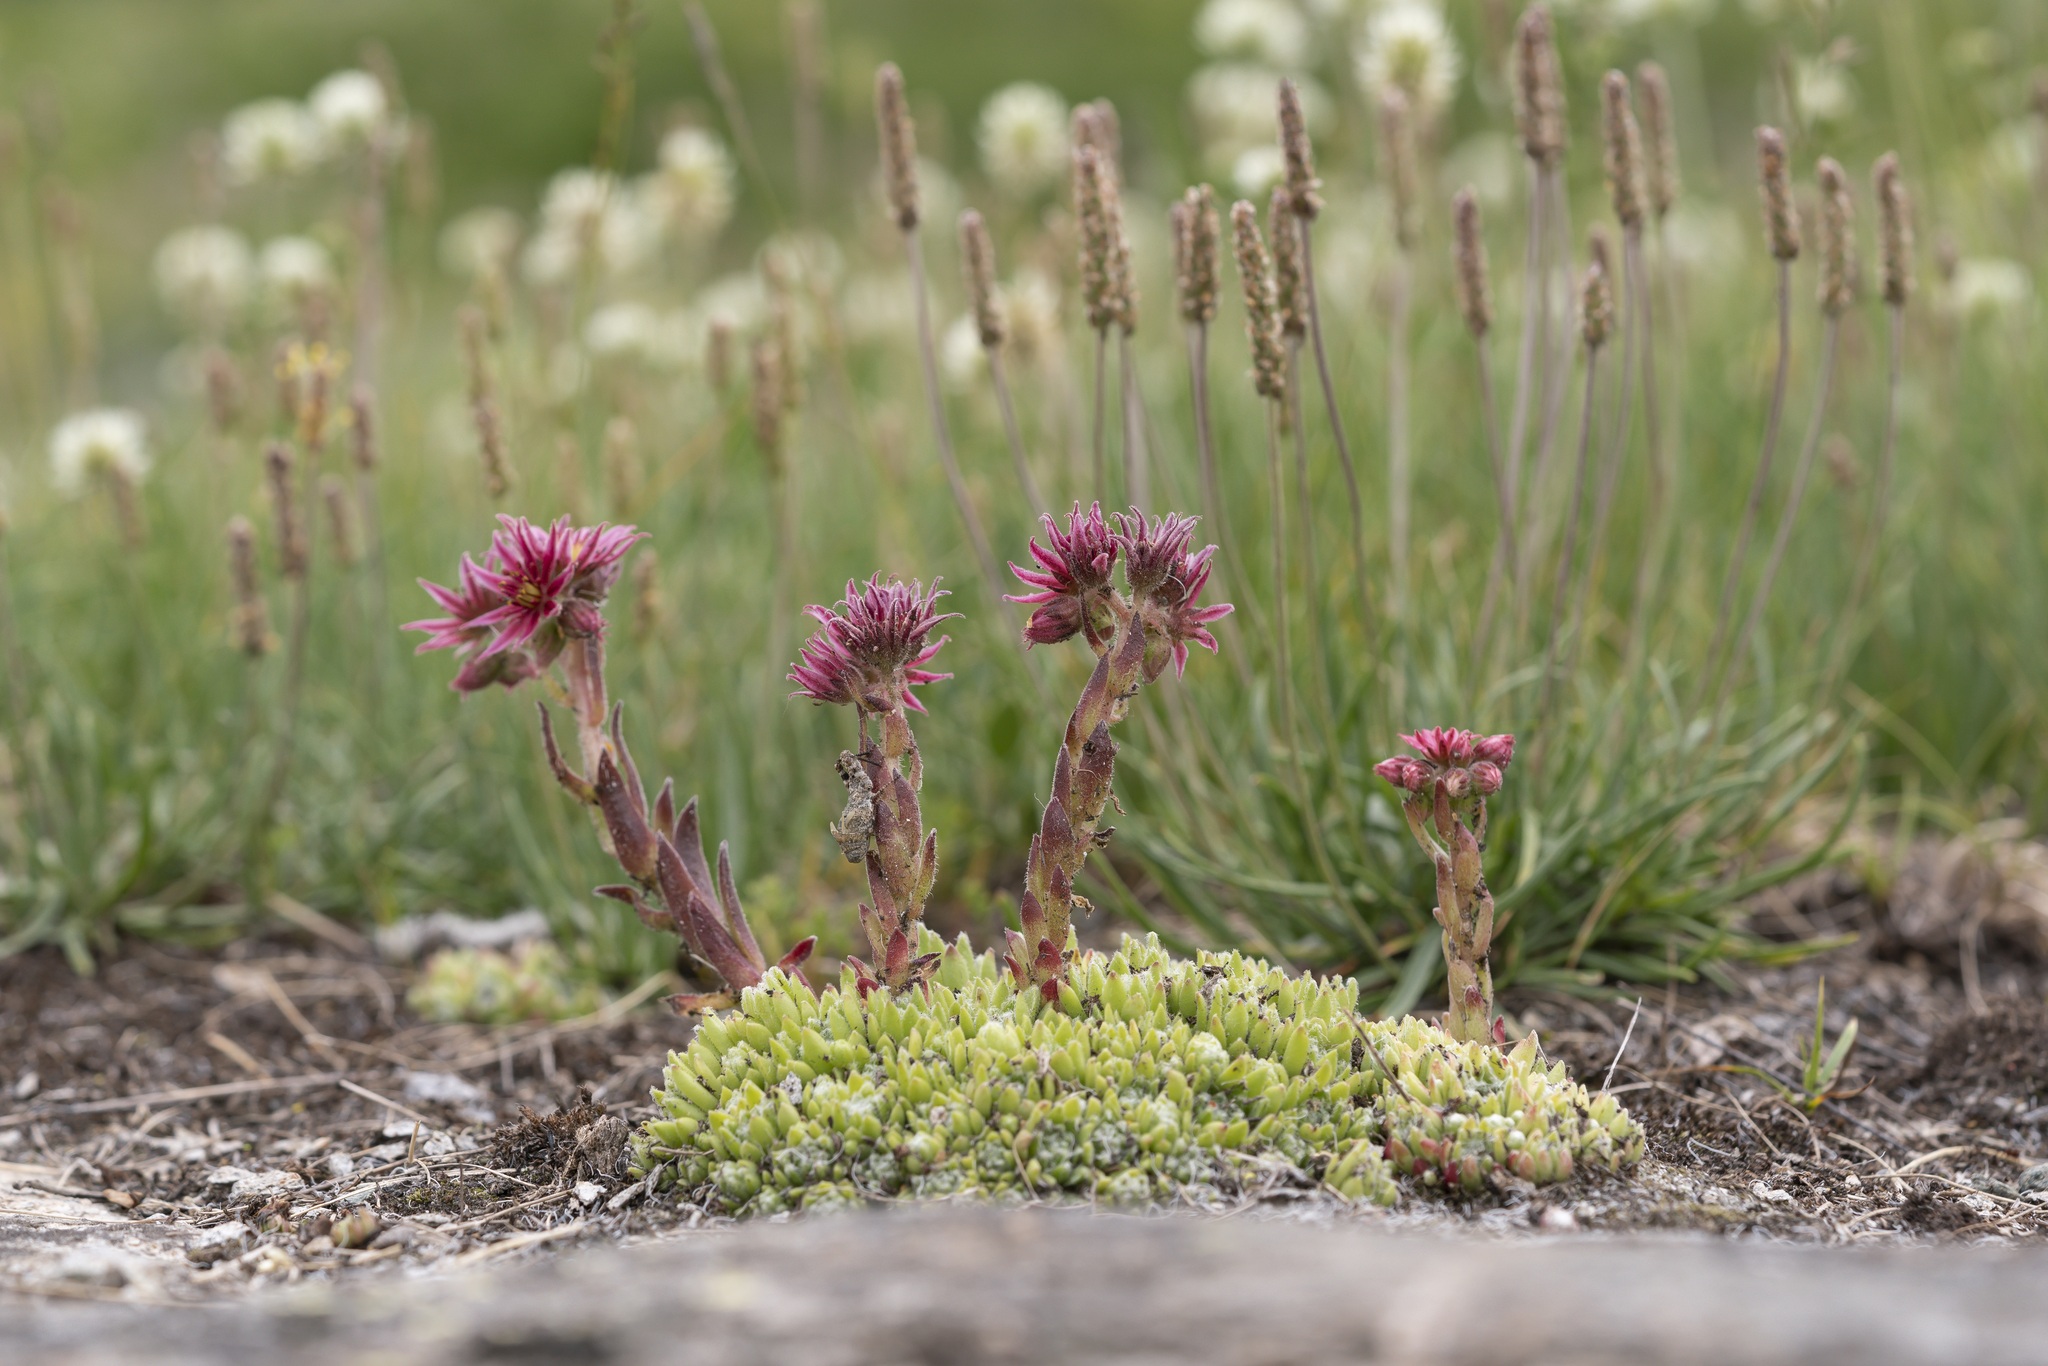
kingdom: Plantae
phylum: Tracheophyta
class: Magnoliopsida
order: Saxifragales
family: Crassulaceae
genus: Sempervivum
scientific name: Sempervivum montanum
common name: Mountain house-leek
